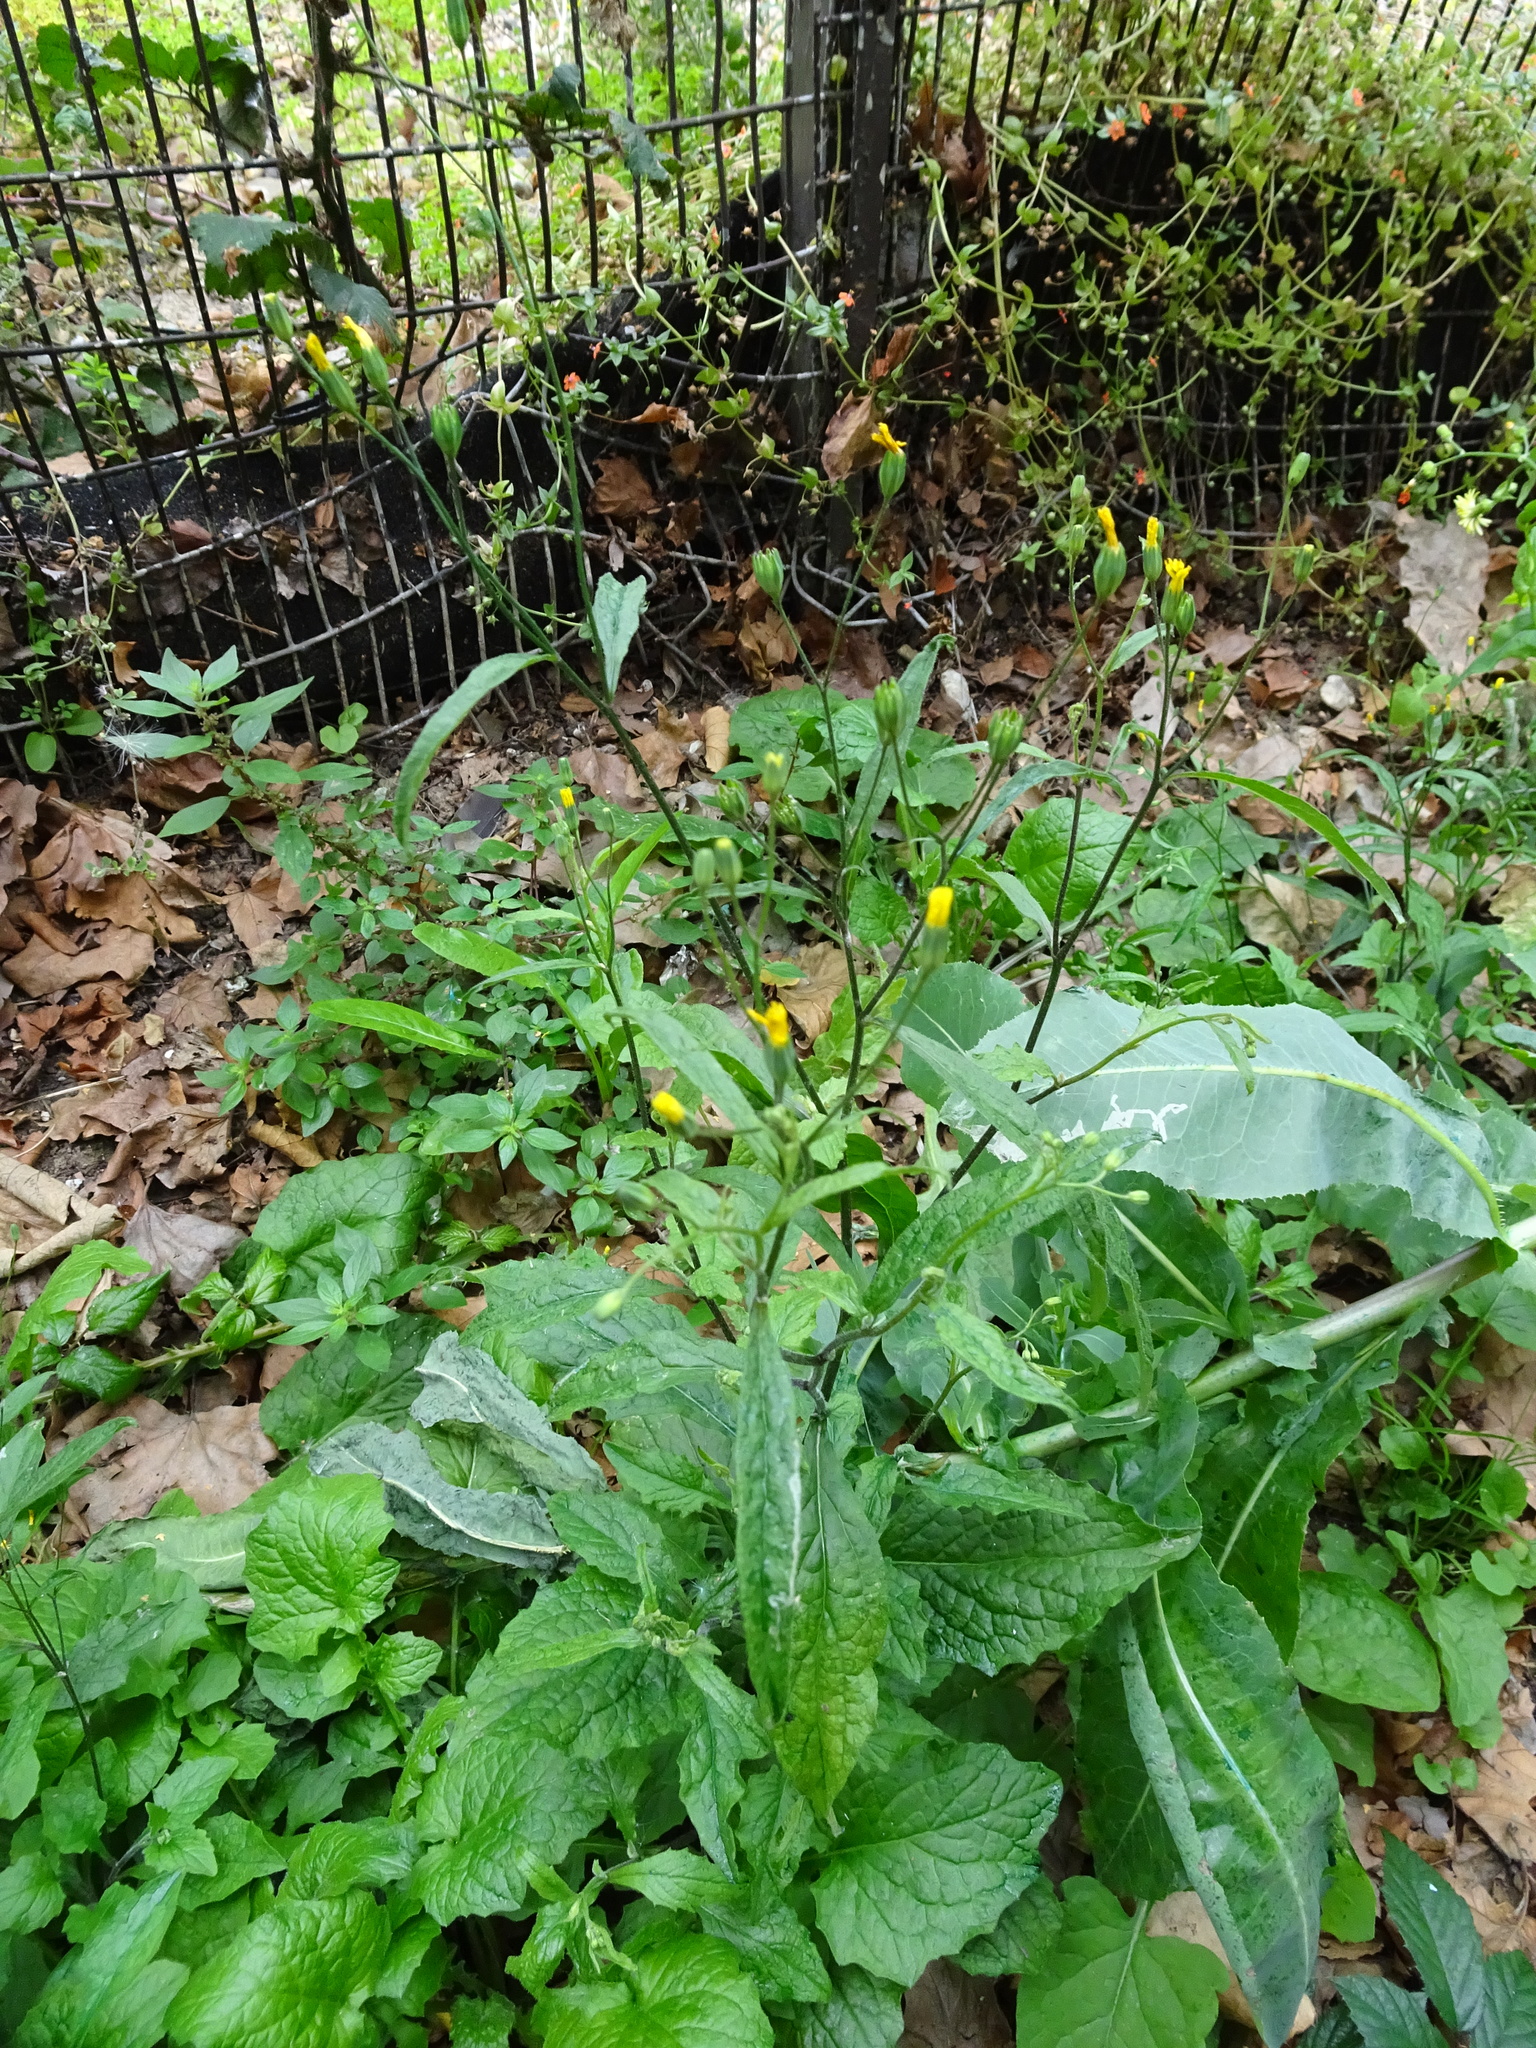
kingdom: Plantae
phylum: Tracheophyta
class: Magnoliopsida
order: Asterales
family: Asteraceae
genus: Lapsana
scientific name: Lapsana communis
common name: Nipplewort
